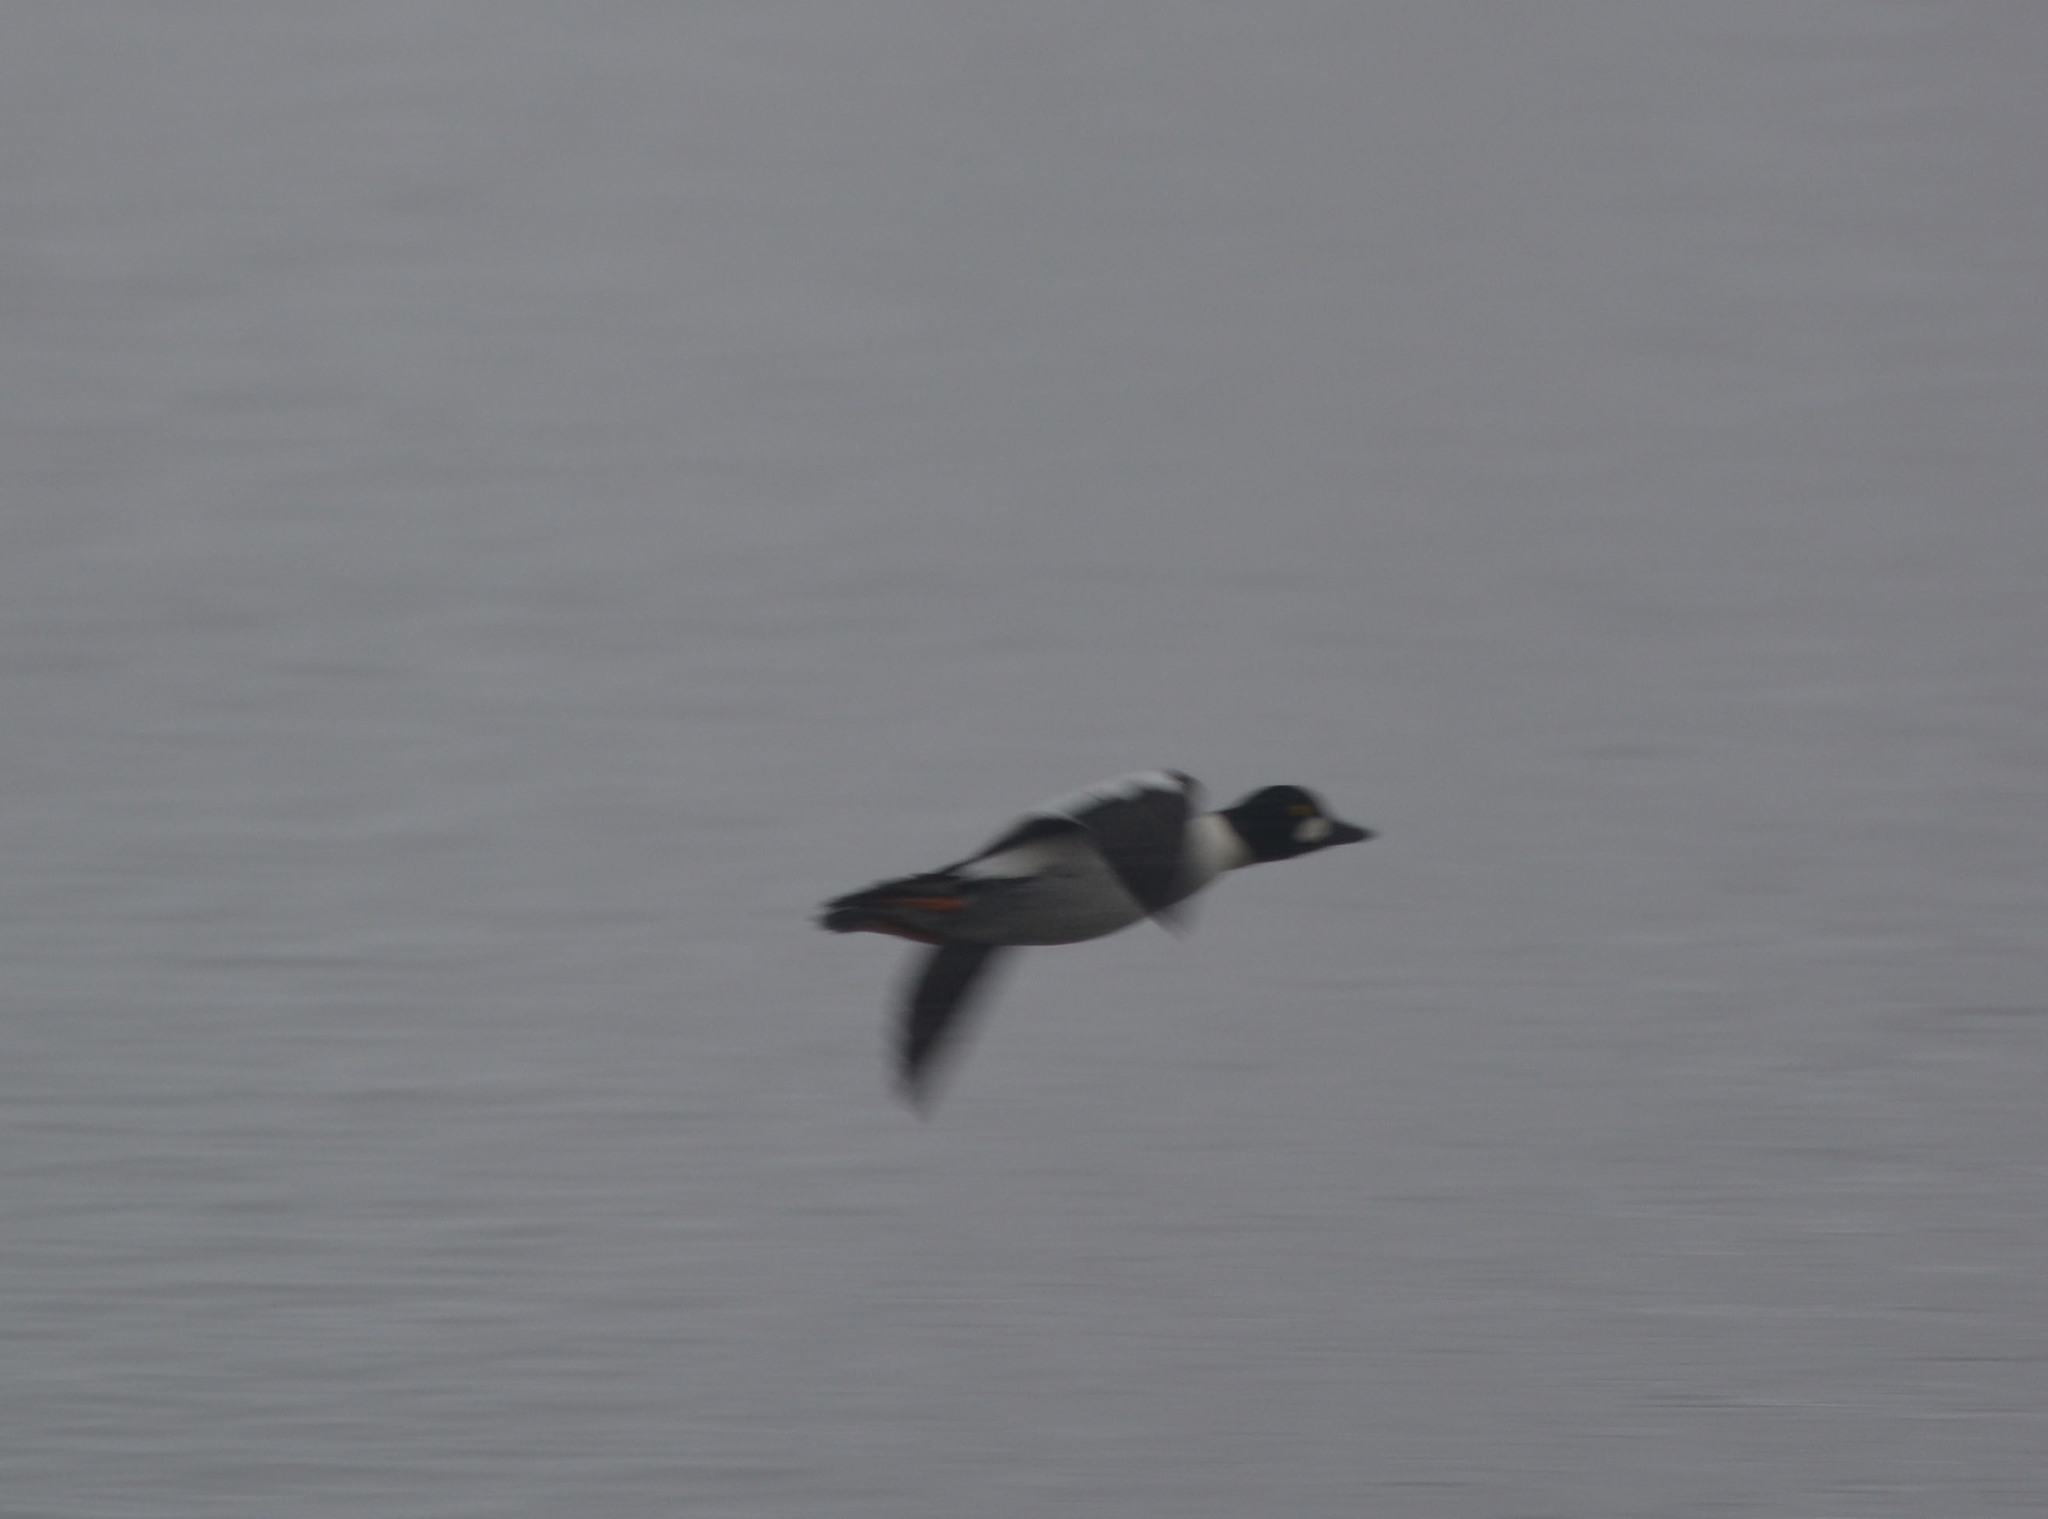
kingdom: Animalia
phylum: Chordata
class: Aves
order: Anseriformes
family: Anatidae
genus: Bucephala
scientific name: Bucephala clangula
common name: Common goldeneye
